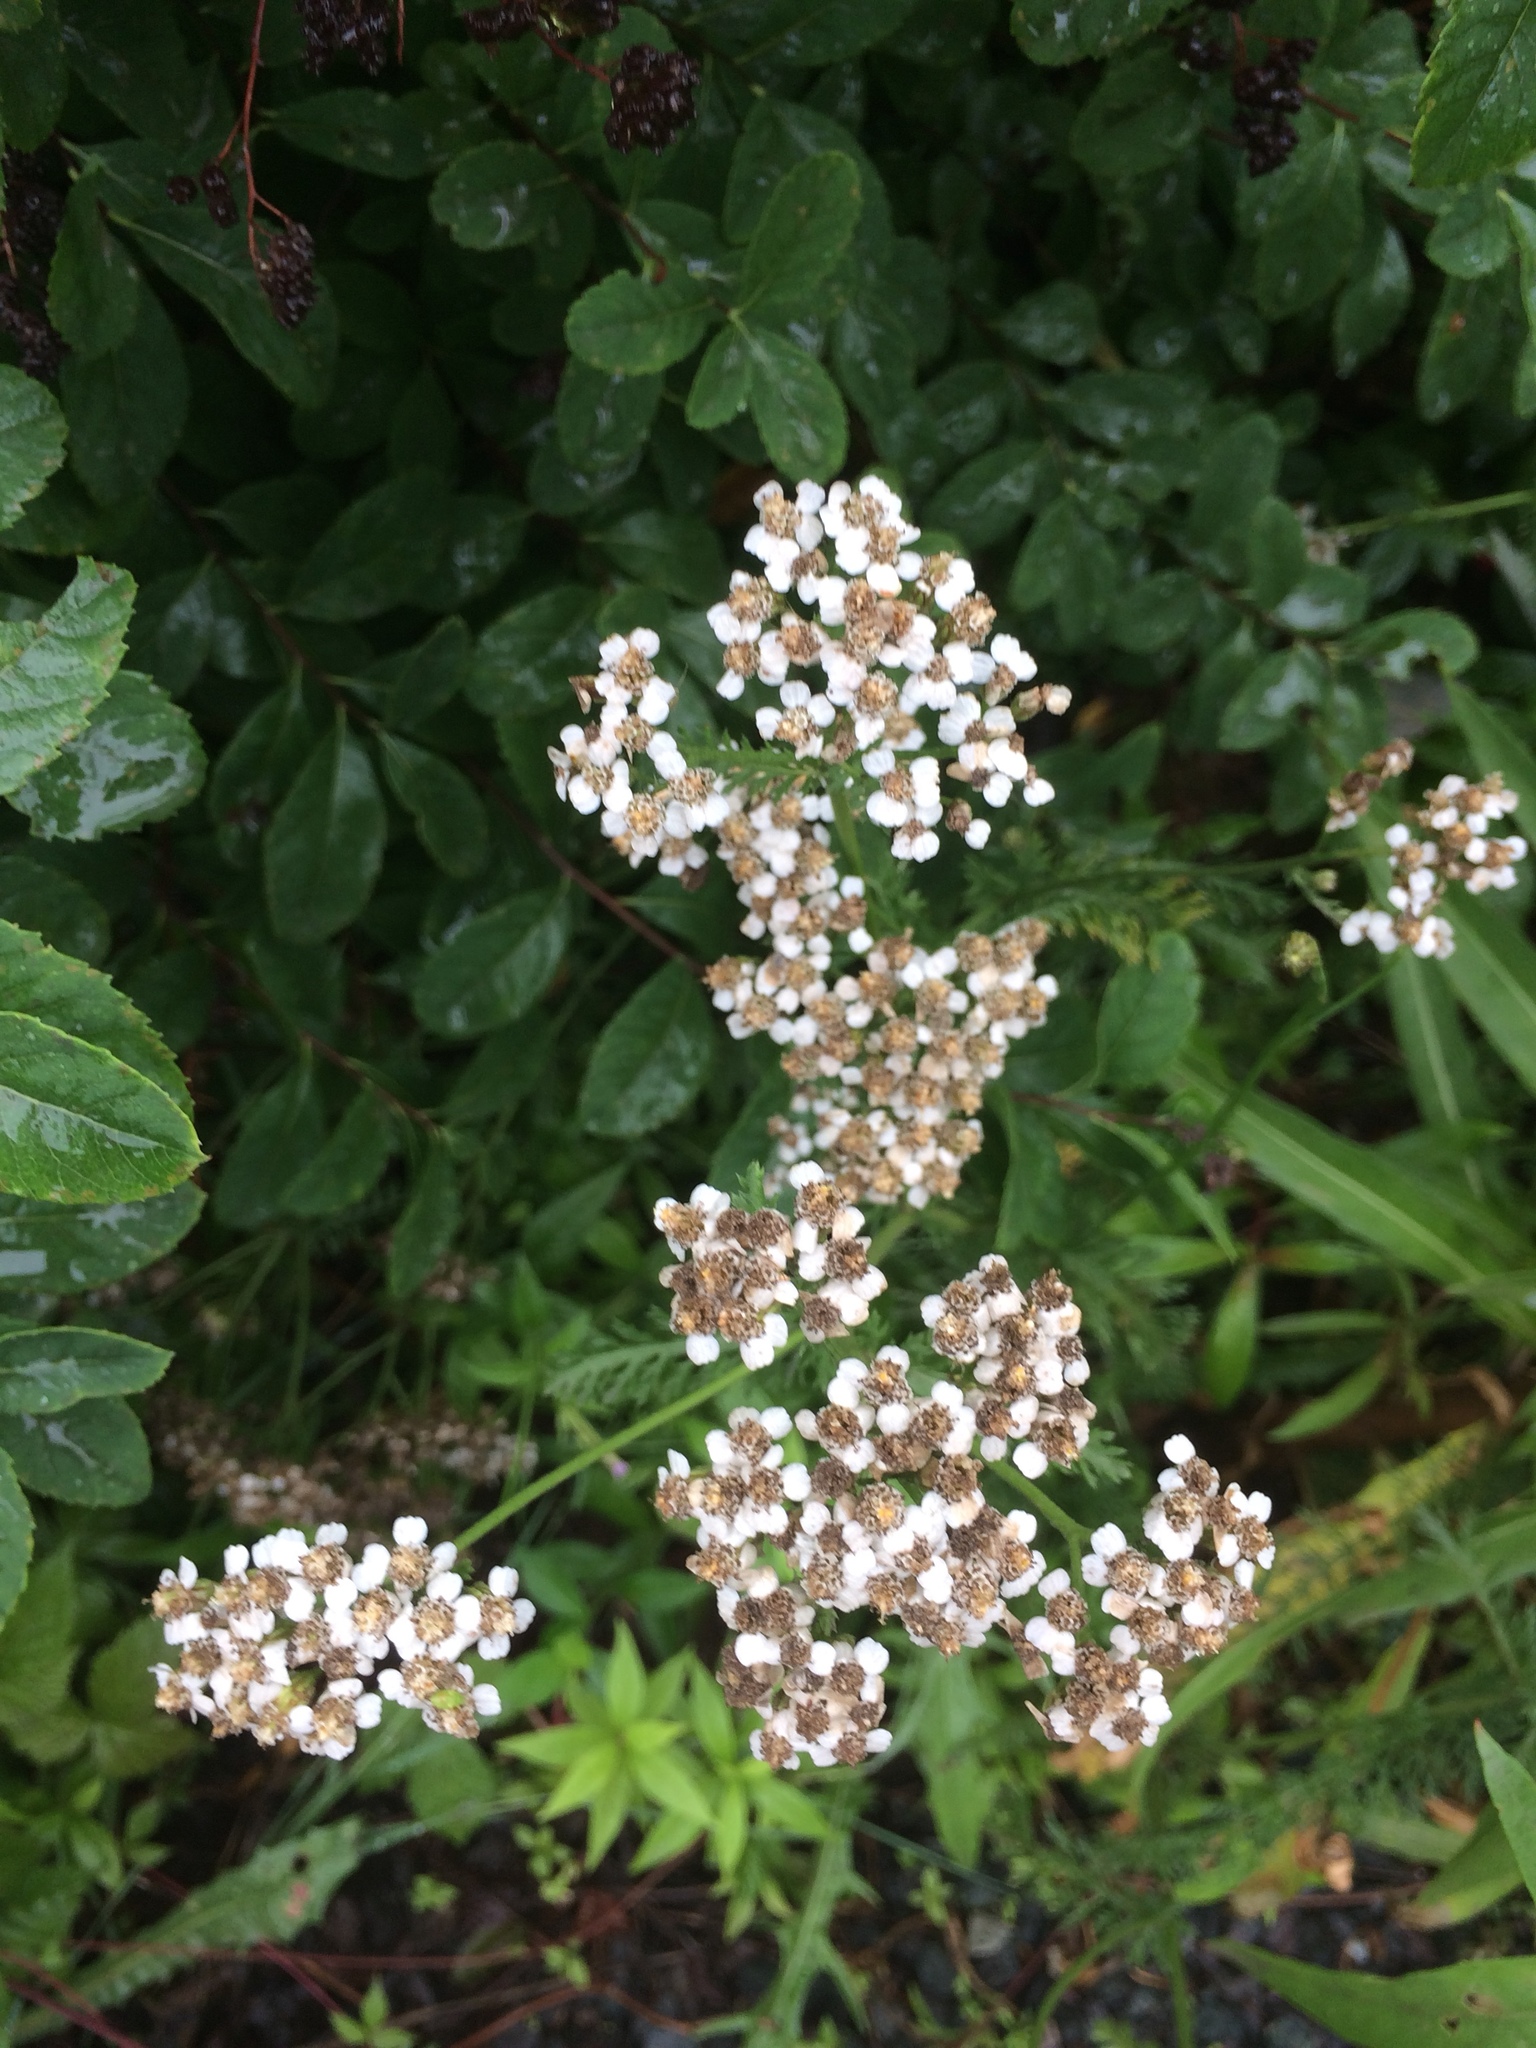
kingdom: Plantae
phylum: Tracheophyta
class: Magnoliopsida
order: Asterales
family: Asteraceae
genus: Achillea
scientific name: Achillea millefolium
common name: Yarrow
